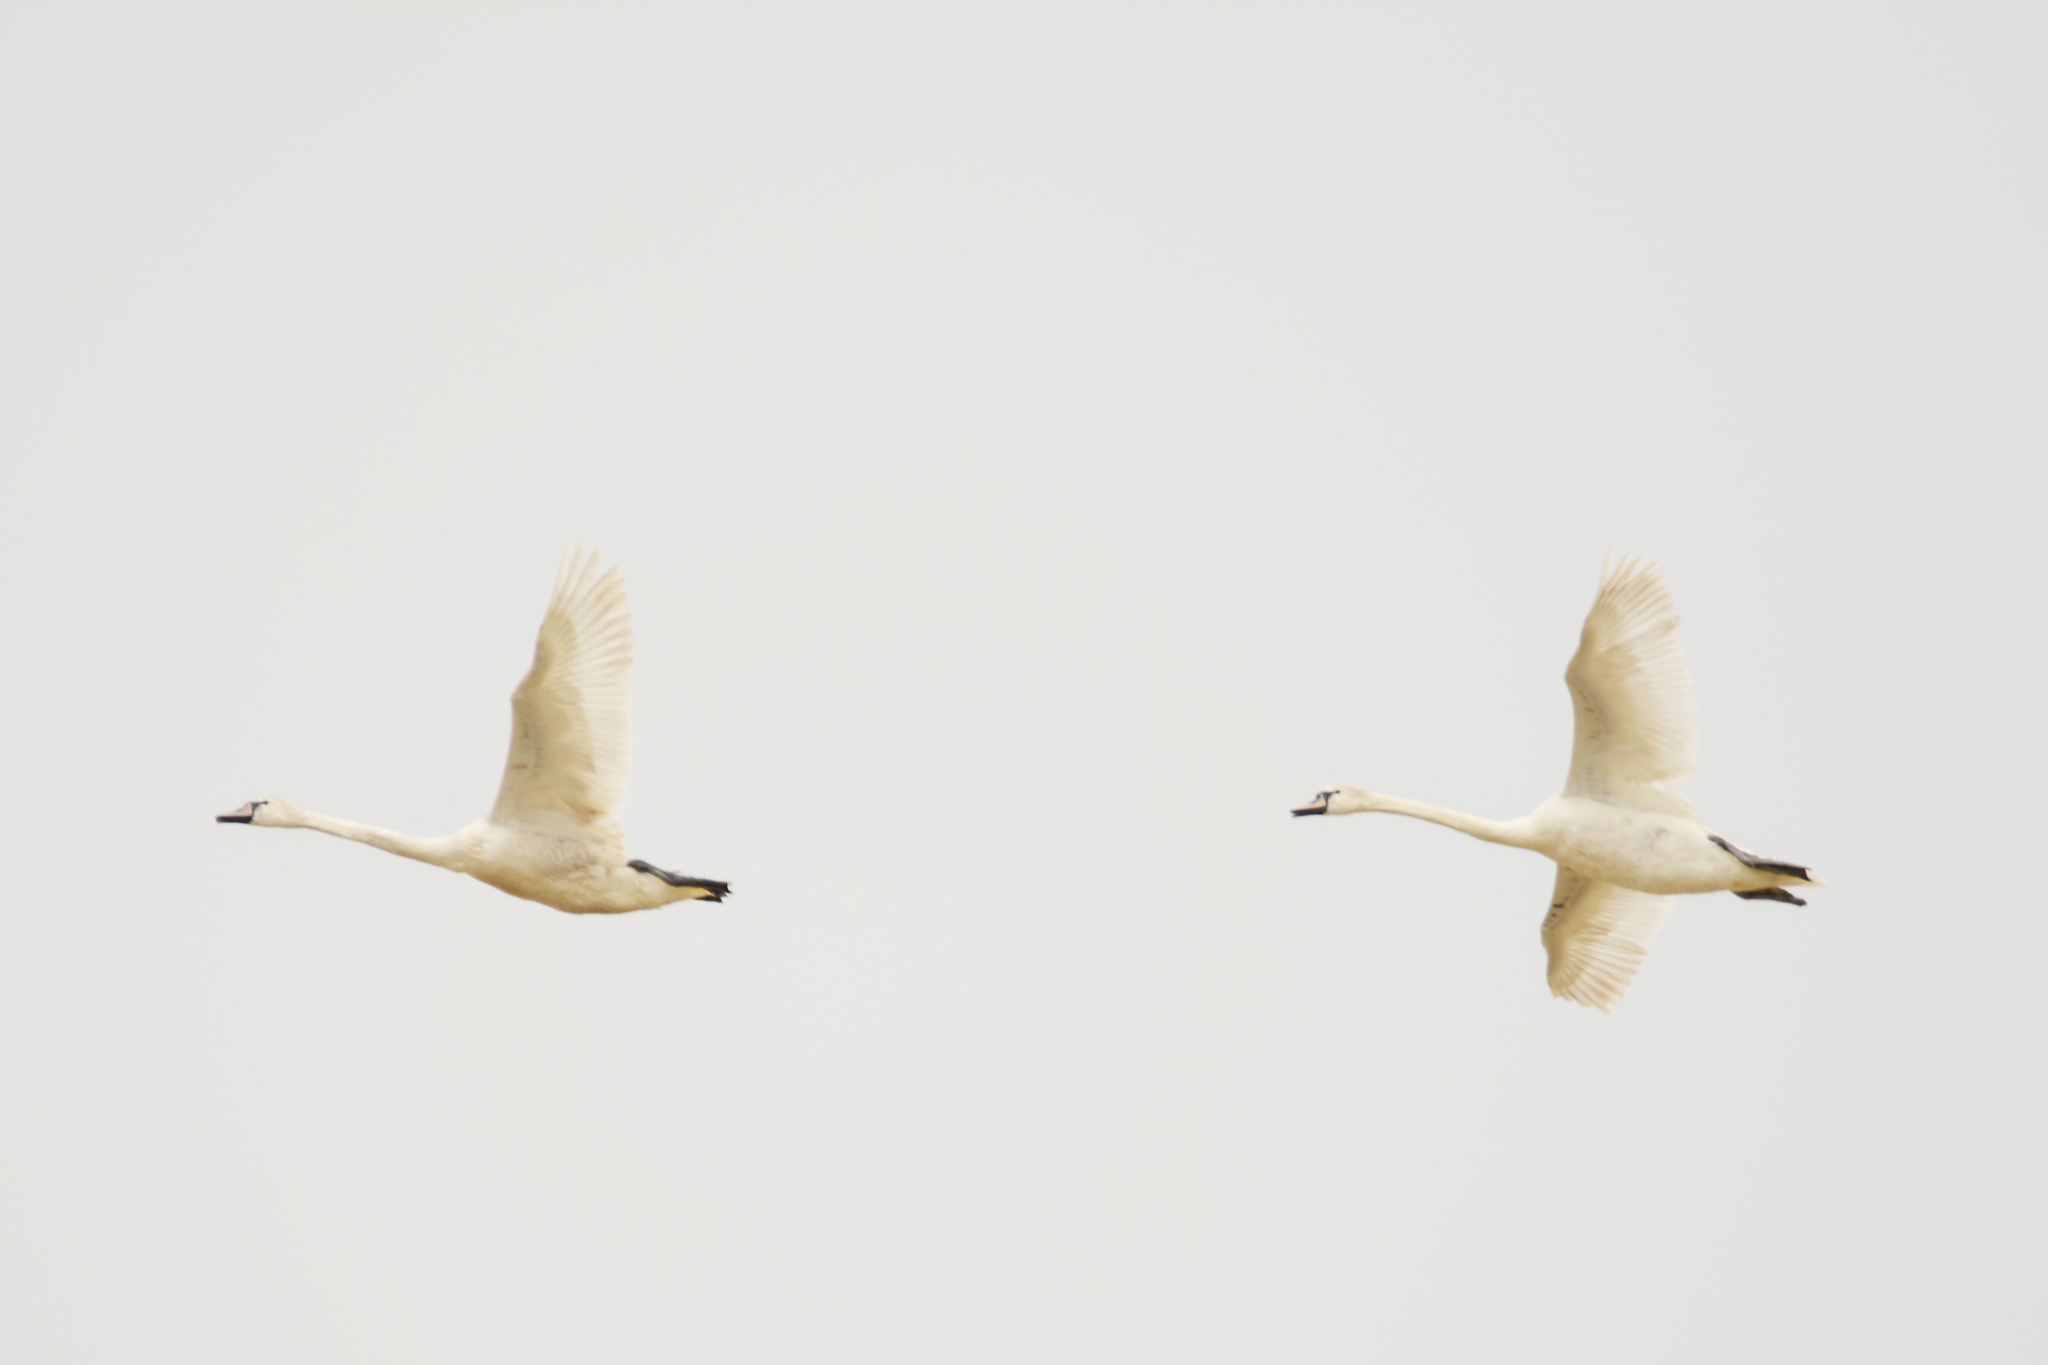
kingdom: Animalia
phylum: Chordata
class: Aves
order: Anseriformes
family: Anatidae
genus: Cygnus
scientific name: Cygnus olor
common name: Mute swan
